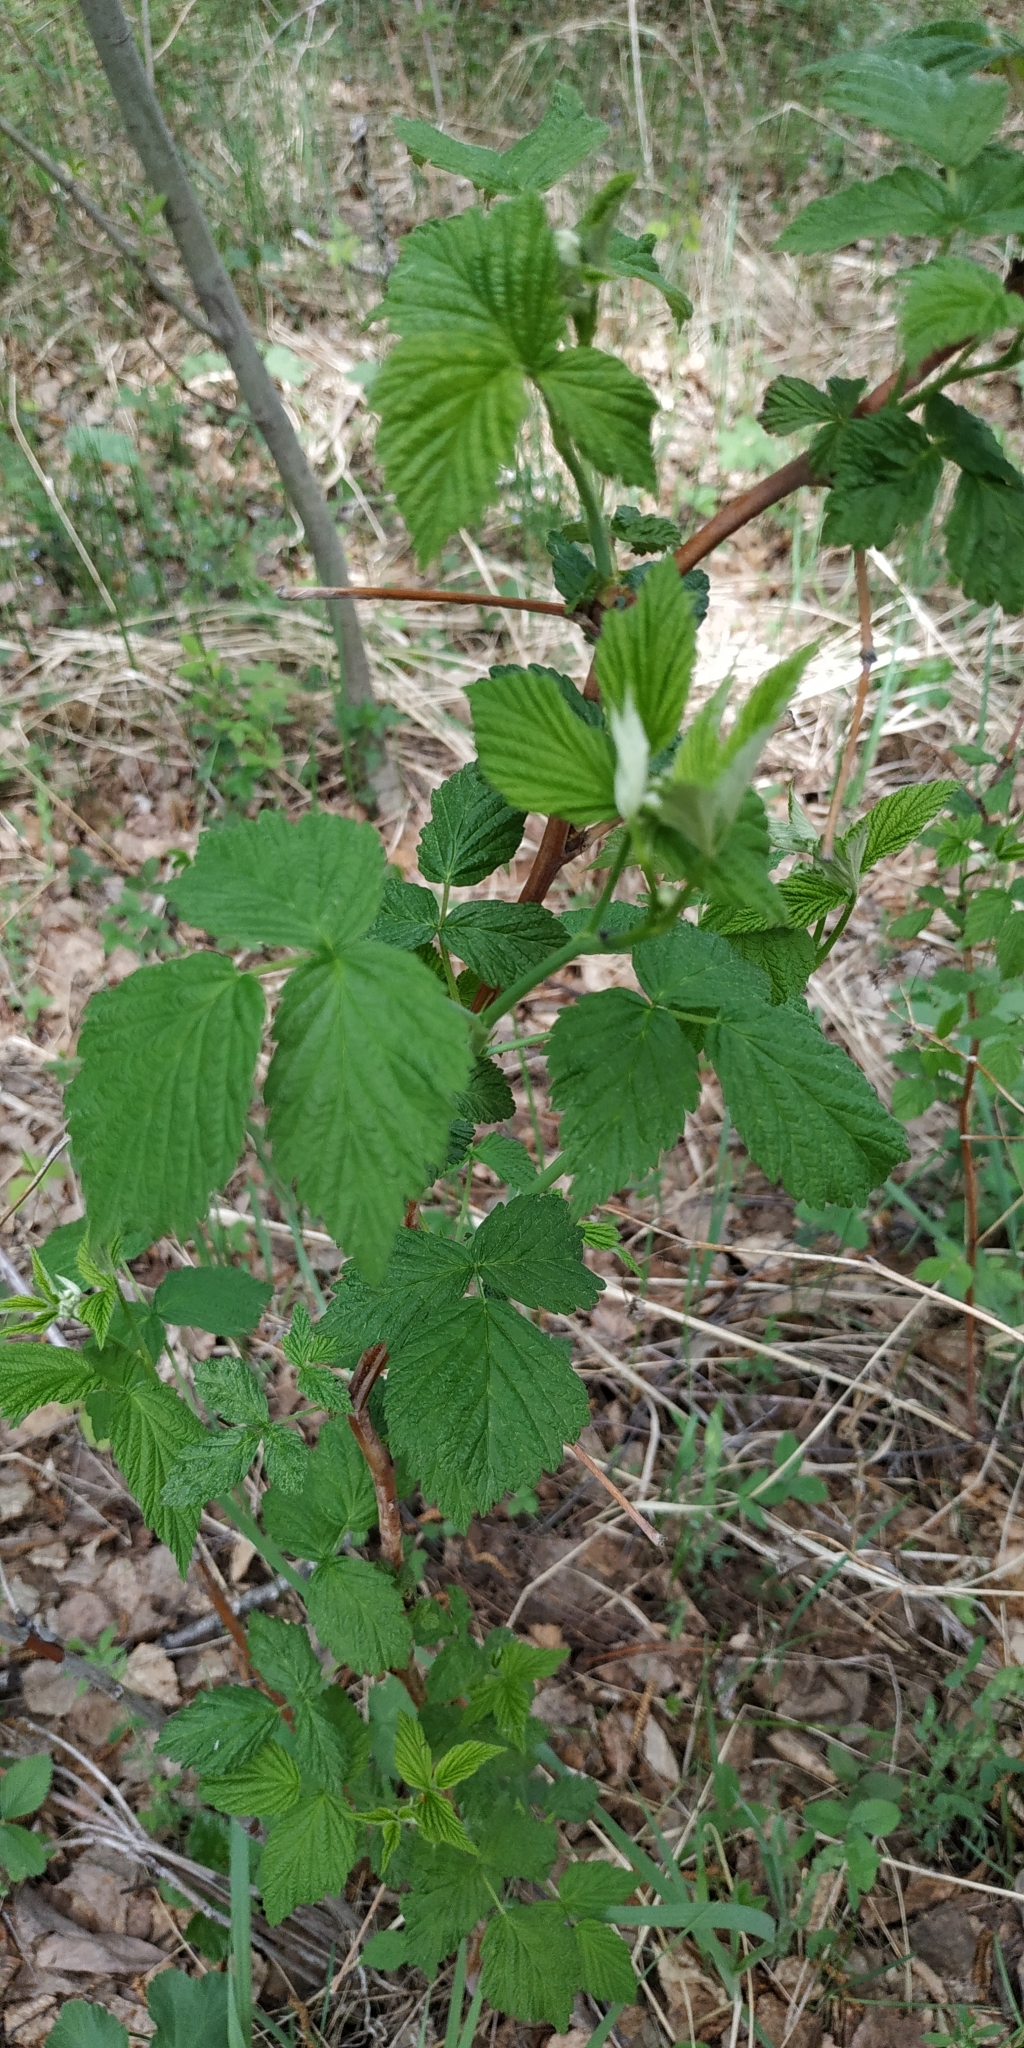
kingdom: Plantae
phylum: Tracheophyta
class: Magnoliopsida
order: Rosales
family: Rosaceae
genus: Rubus
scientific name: Rubus idaeus
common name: Raspberry
